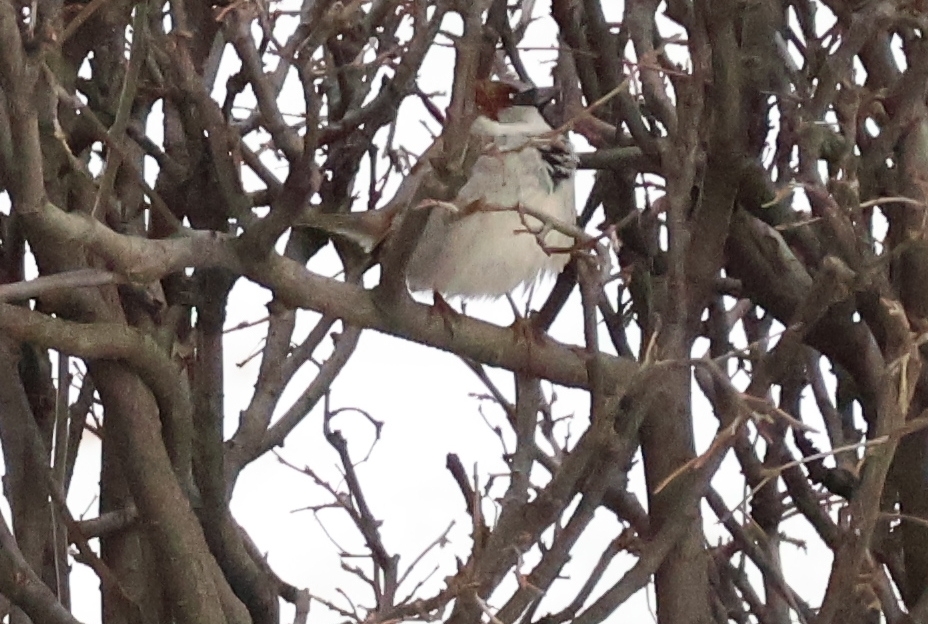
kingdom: Animalia
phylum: Chordata
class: Aves
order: Passeriformes
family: Passeridae
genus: Passer
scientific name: Passer domesticus
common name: House sparrow
